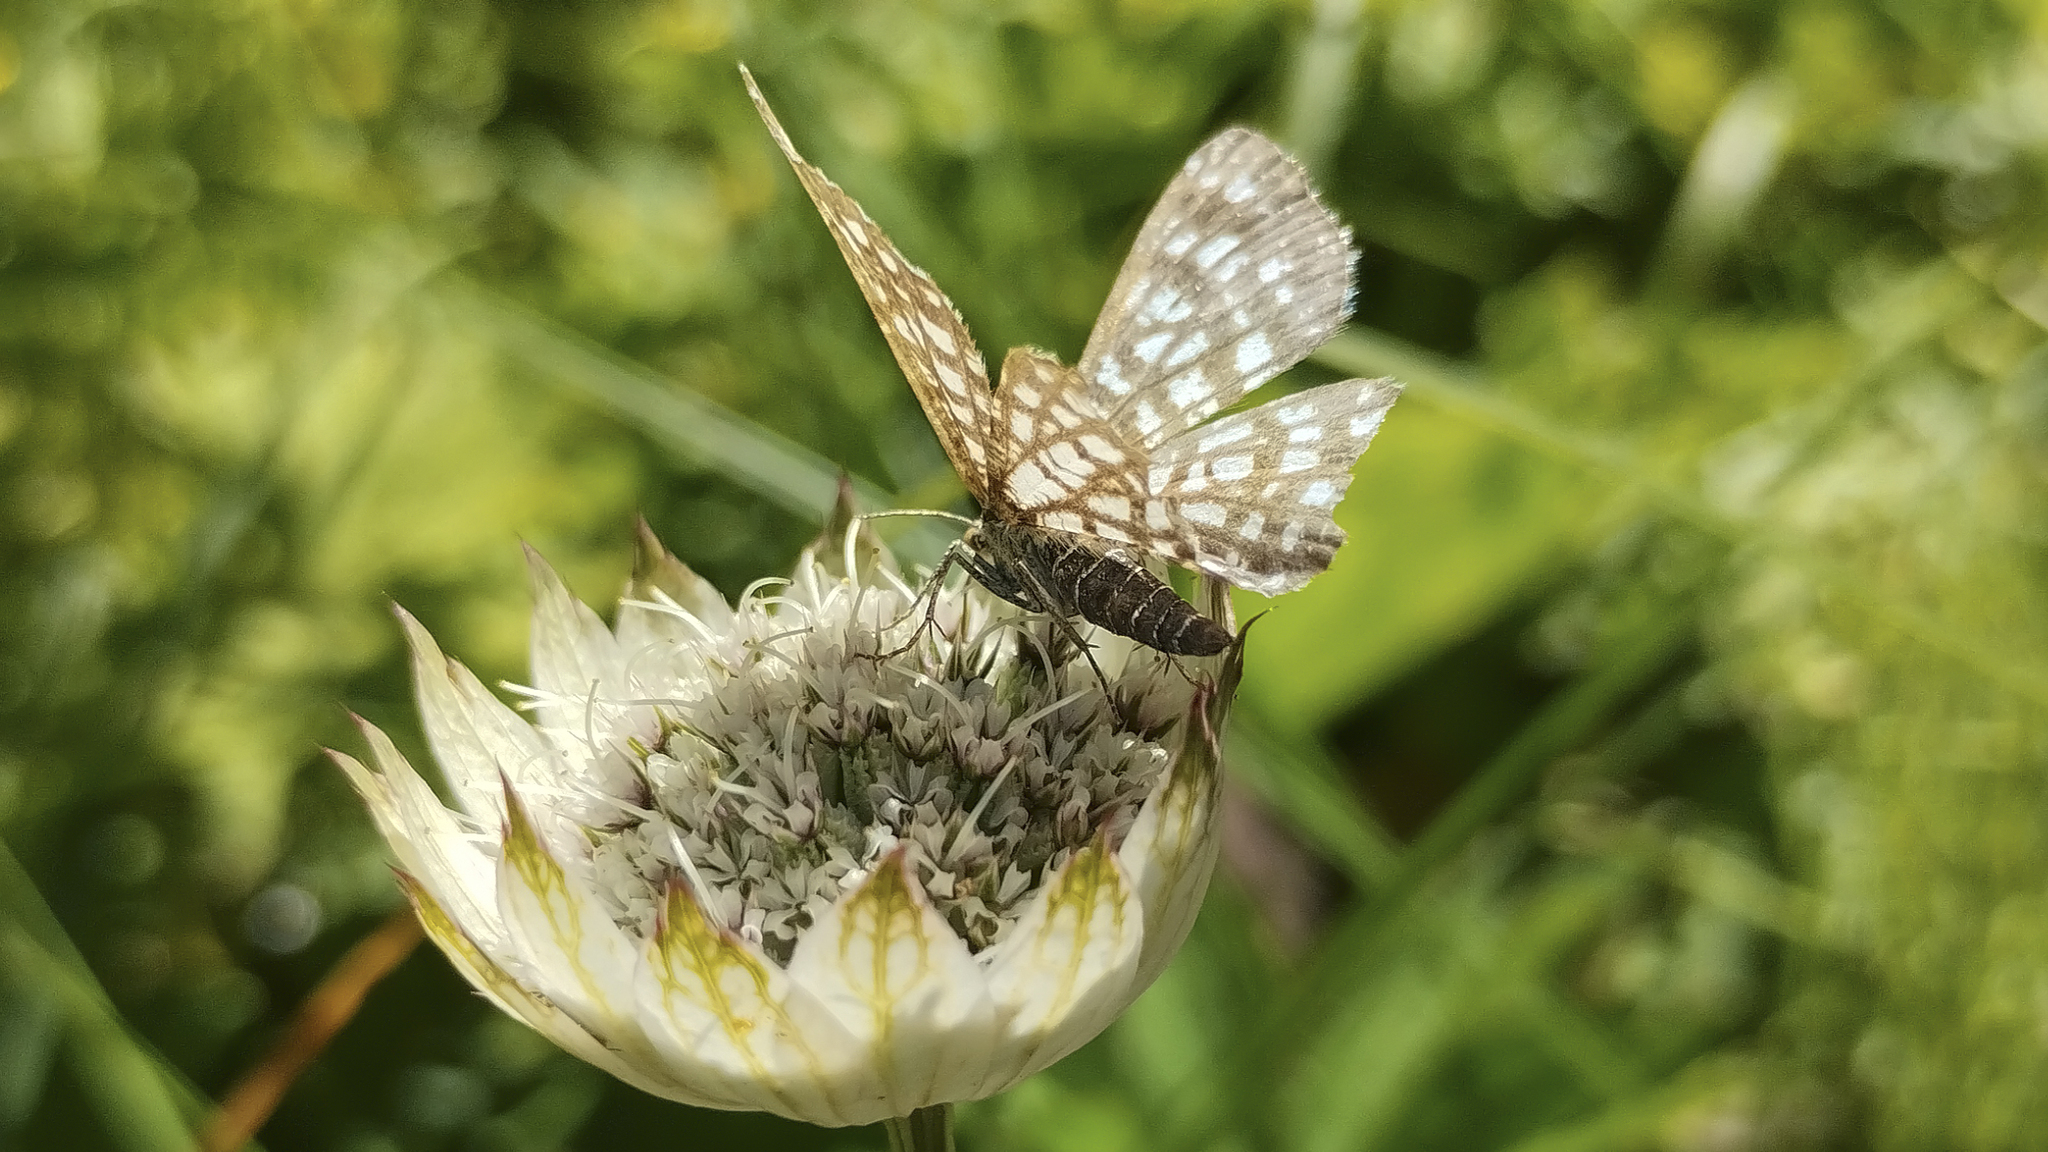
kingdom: Animalia
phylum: Arthropoda
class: Insecta
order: Lepidoptera
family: Geometridae
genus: Chiasmia
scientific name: Chiasmia clathrata
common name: Latticed heath
